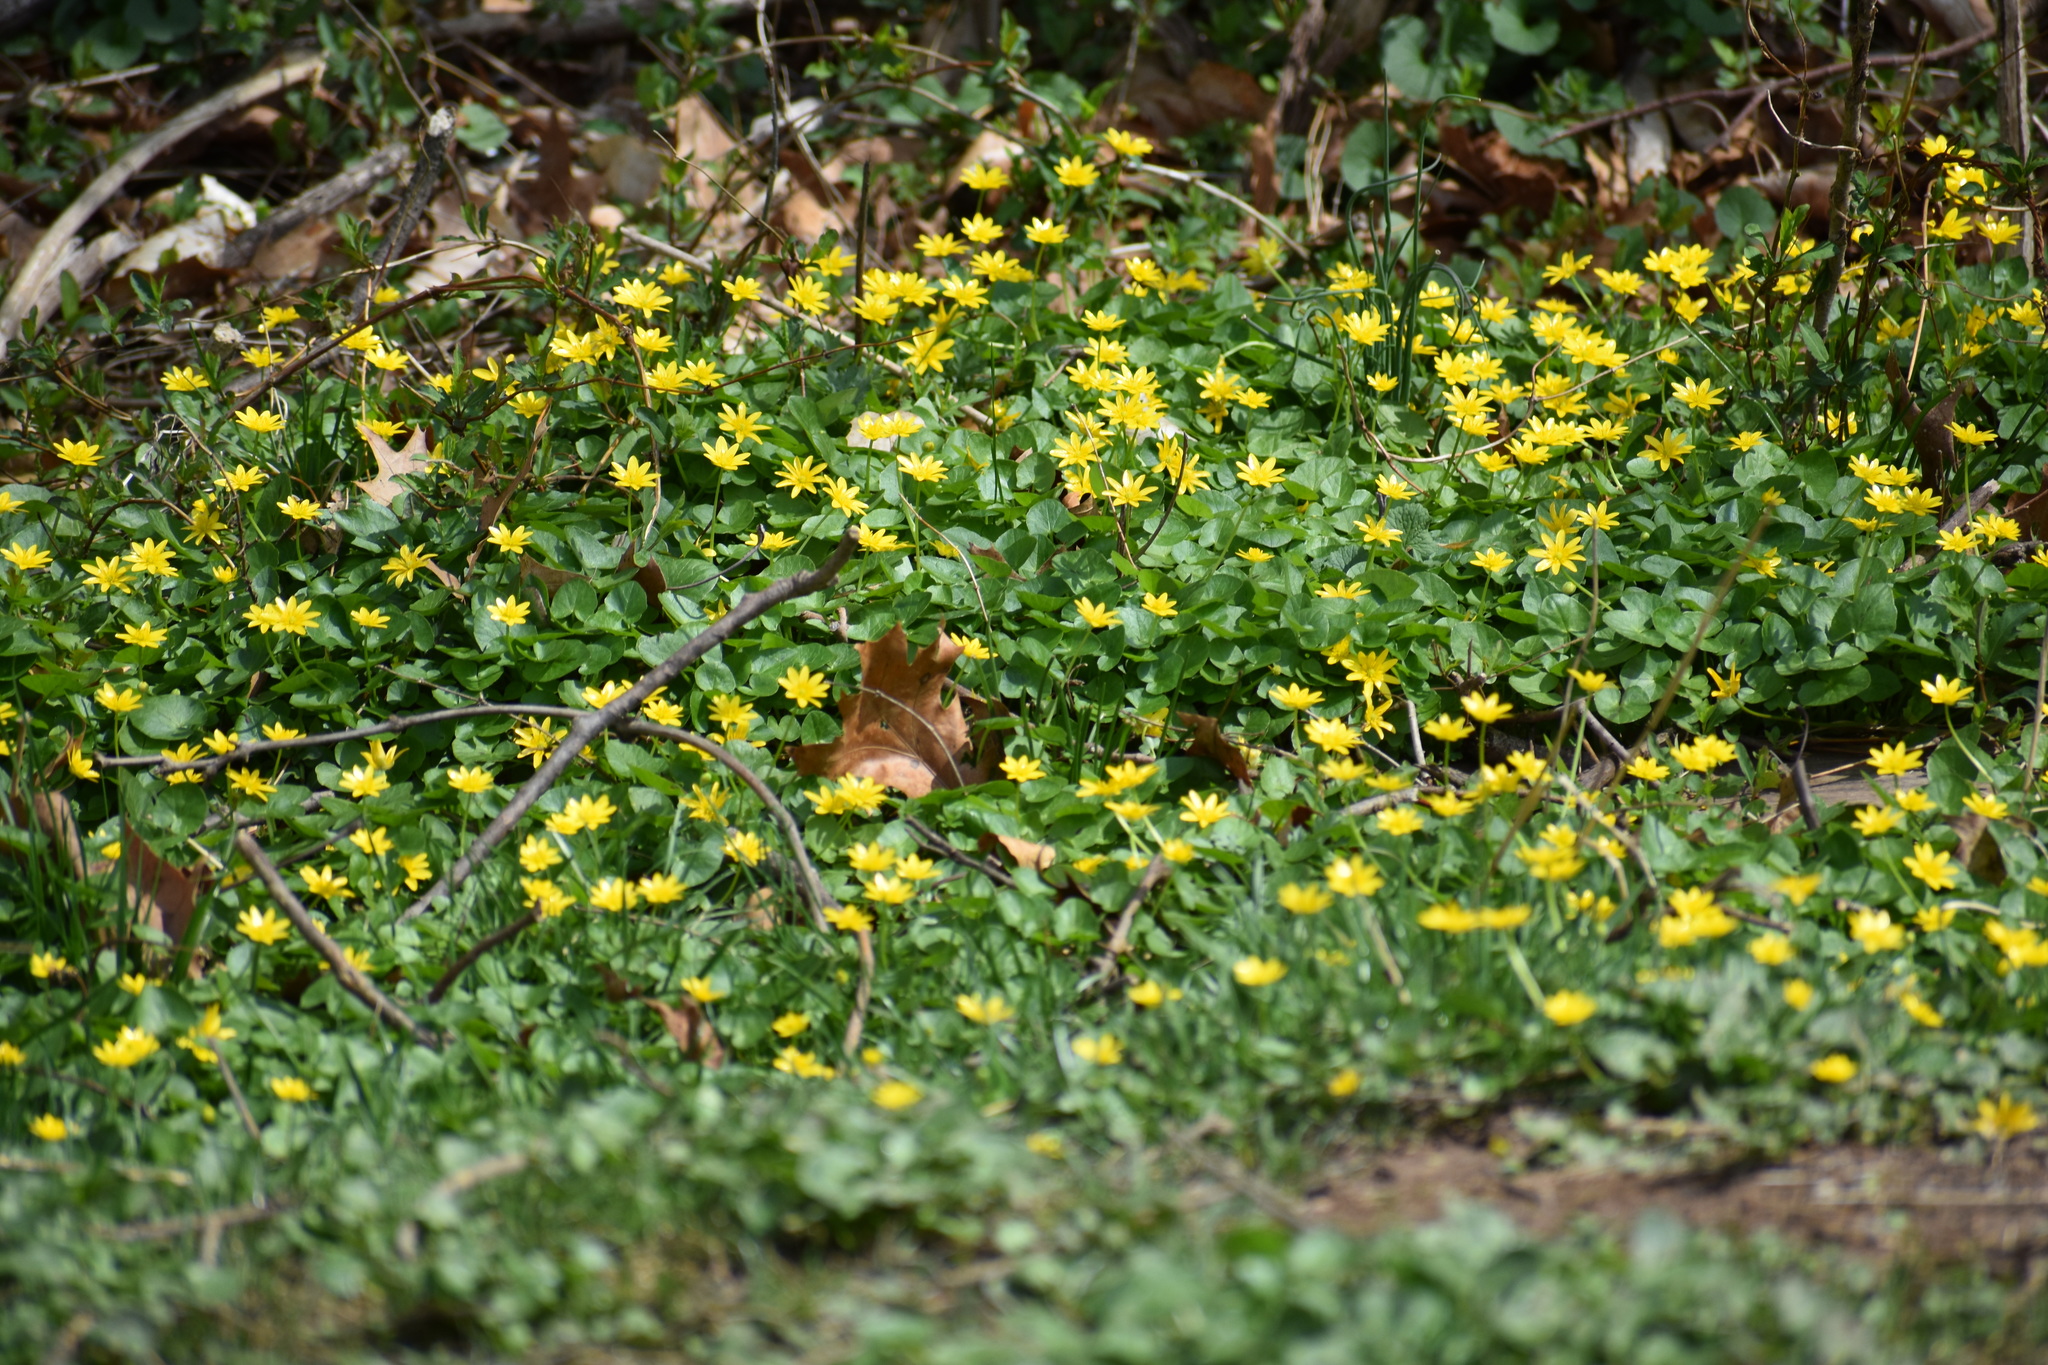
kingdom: Plantae
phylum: Tracheophyta
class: Magnoliopsida
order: Ranunculales
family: Ranunculaceae
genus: Ficaria
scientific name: Ficaria verna
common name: Lesser celandine
